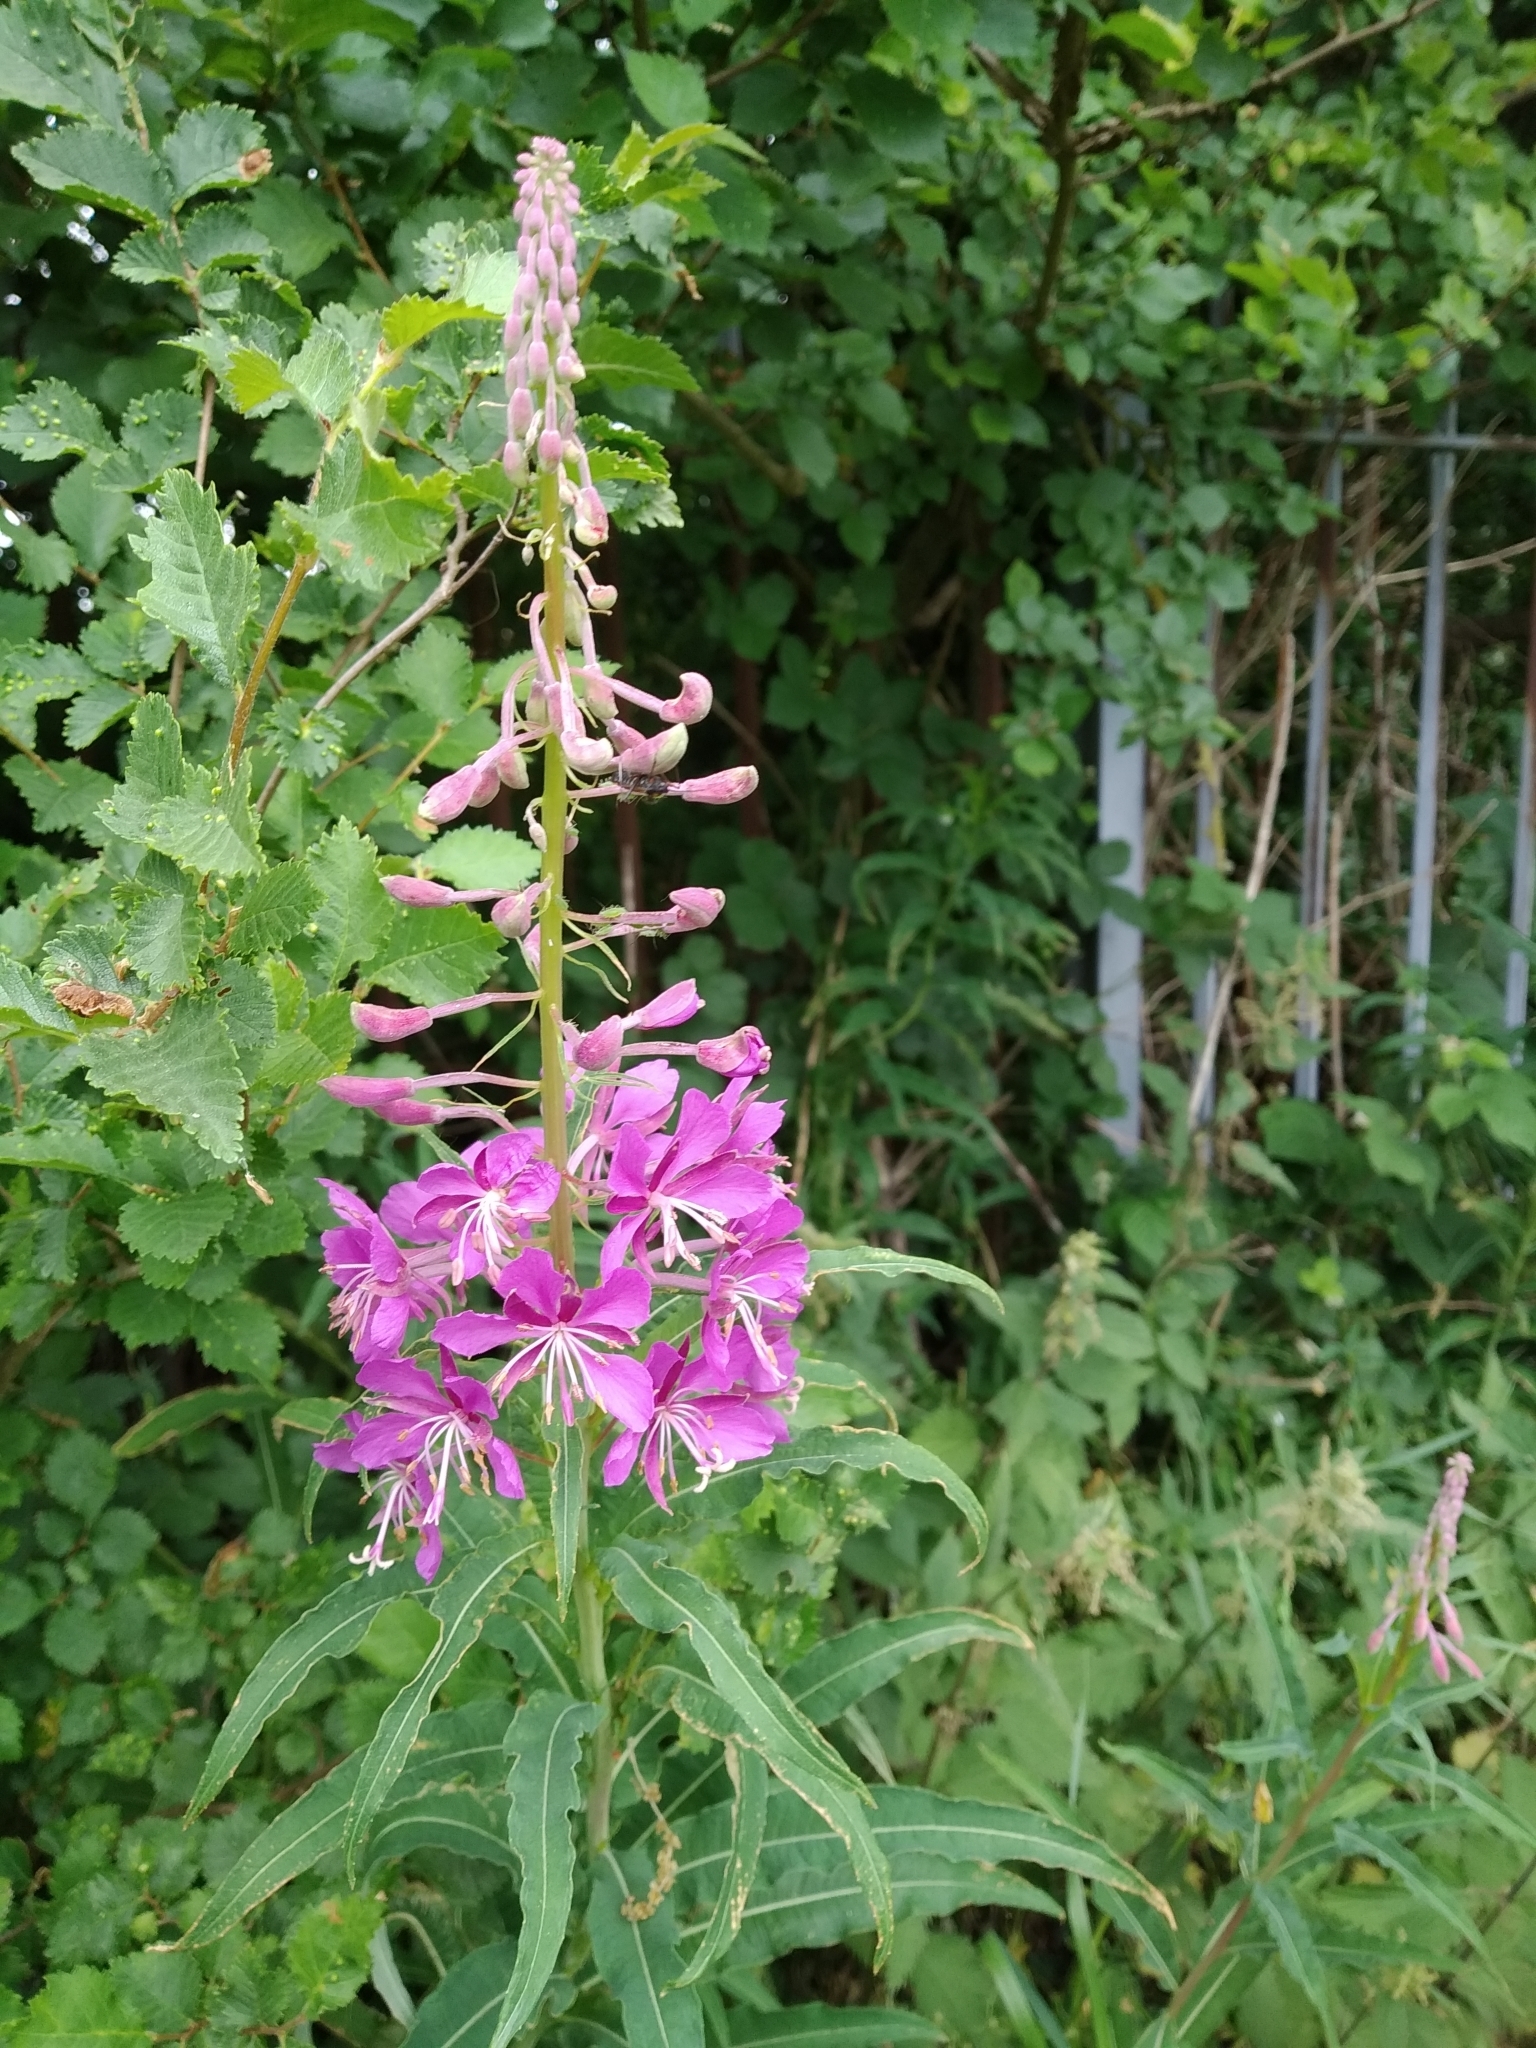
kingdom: Plantae
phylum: Tracheophyta
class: Magnoliopsida
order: Myrtales
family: Onagraceae
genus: Chamaenerion
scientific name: Chamaenerion angustifolium
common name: Fireweed
